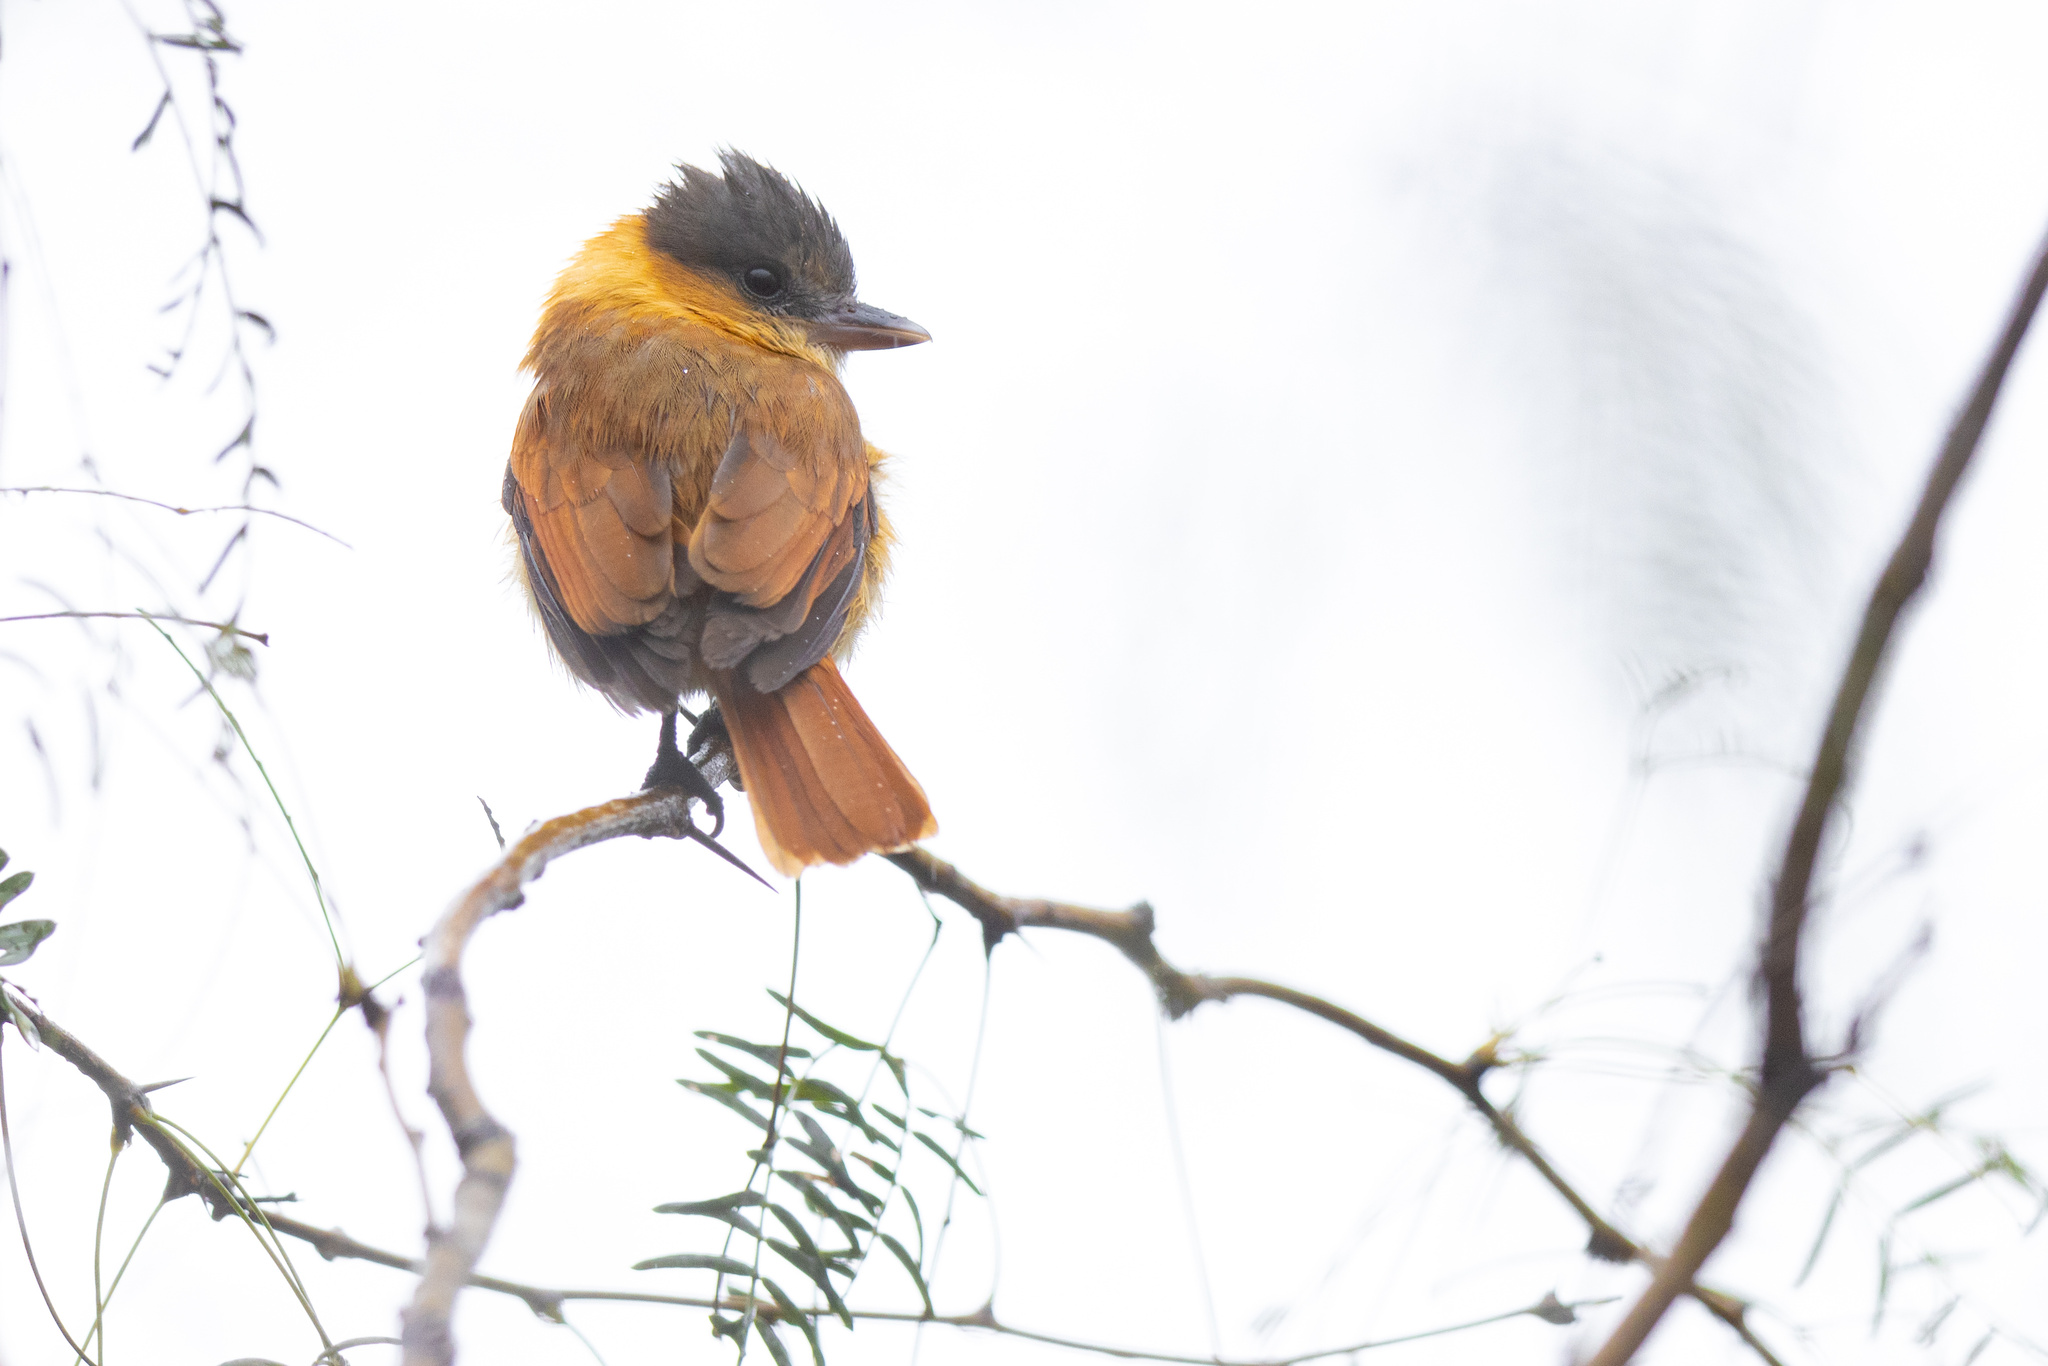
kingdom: Animalia
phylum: Chordata
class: Aves
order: Passeriformes
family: Cotingidae
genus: Pachyramphus
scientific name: Pachyramphus aglaiae
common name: Rose-throated becard
